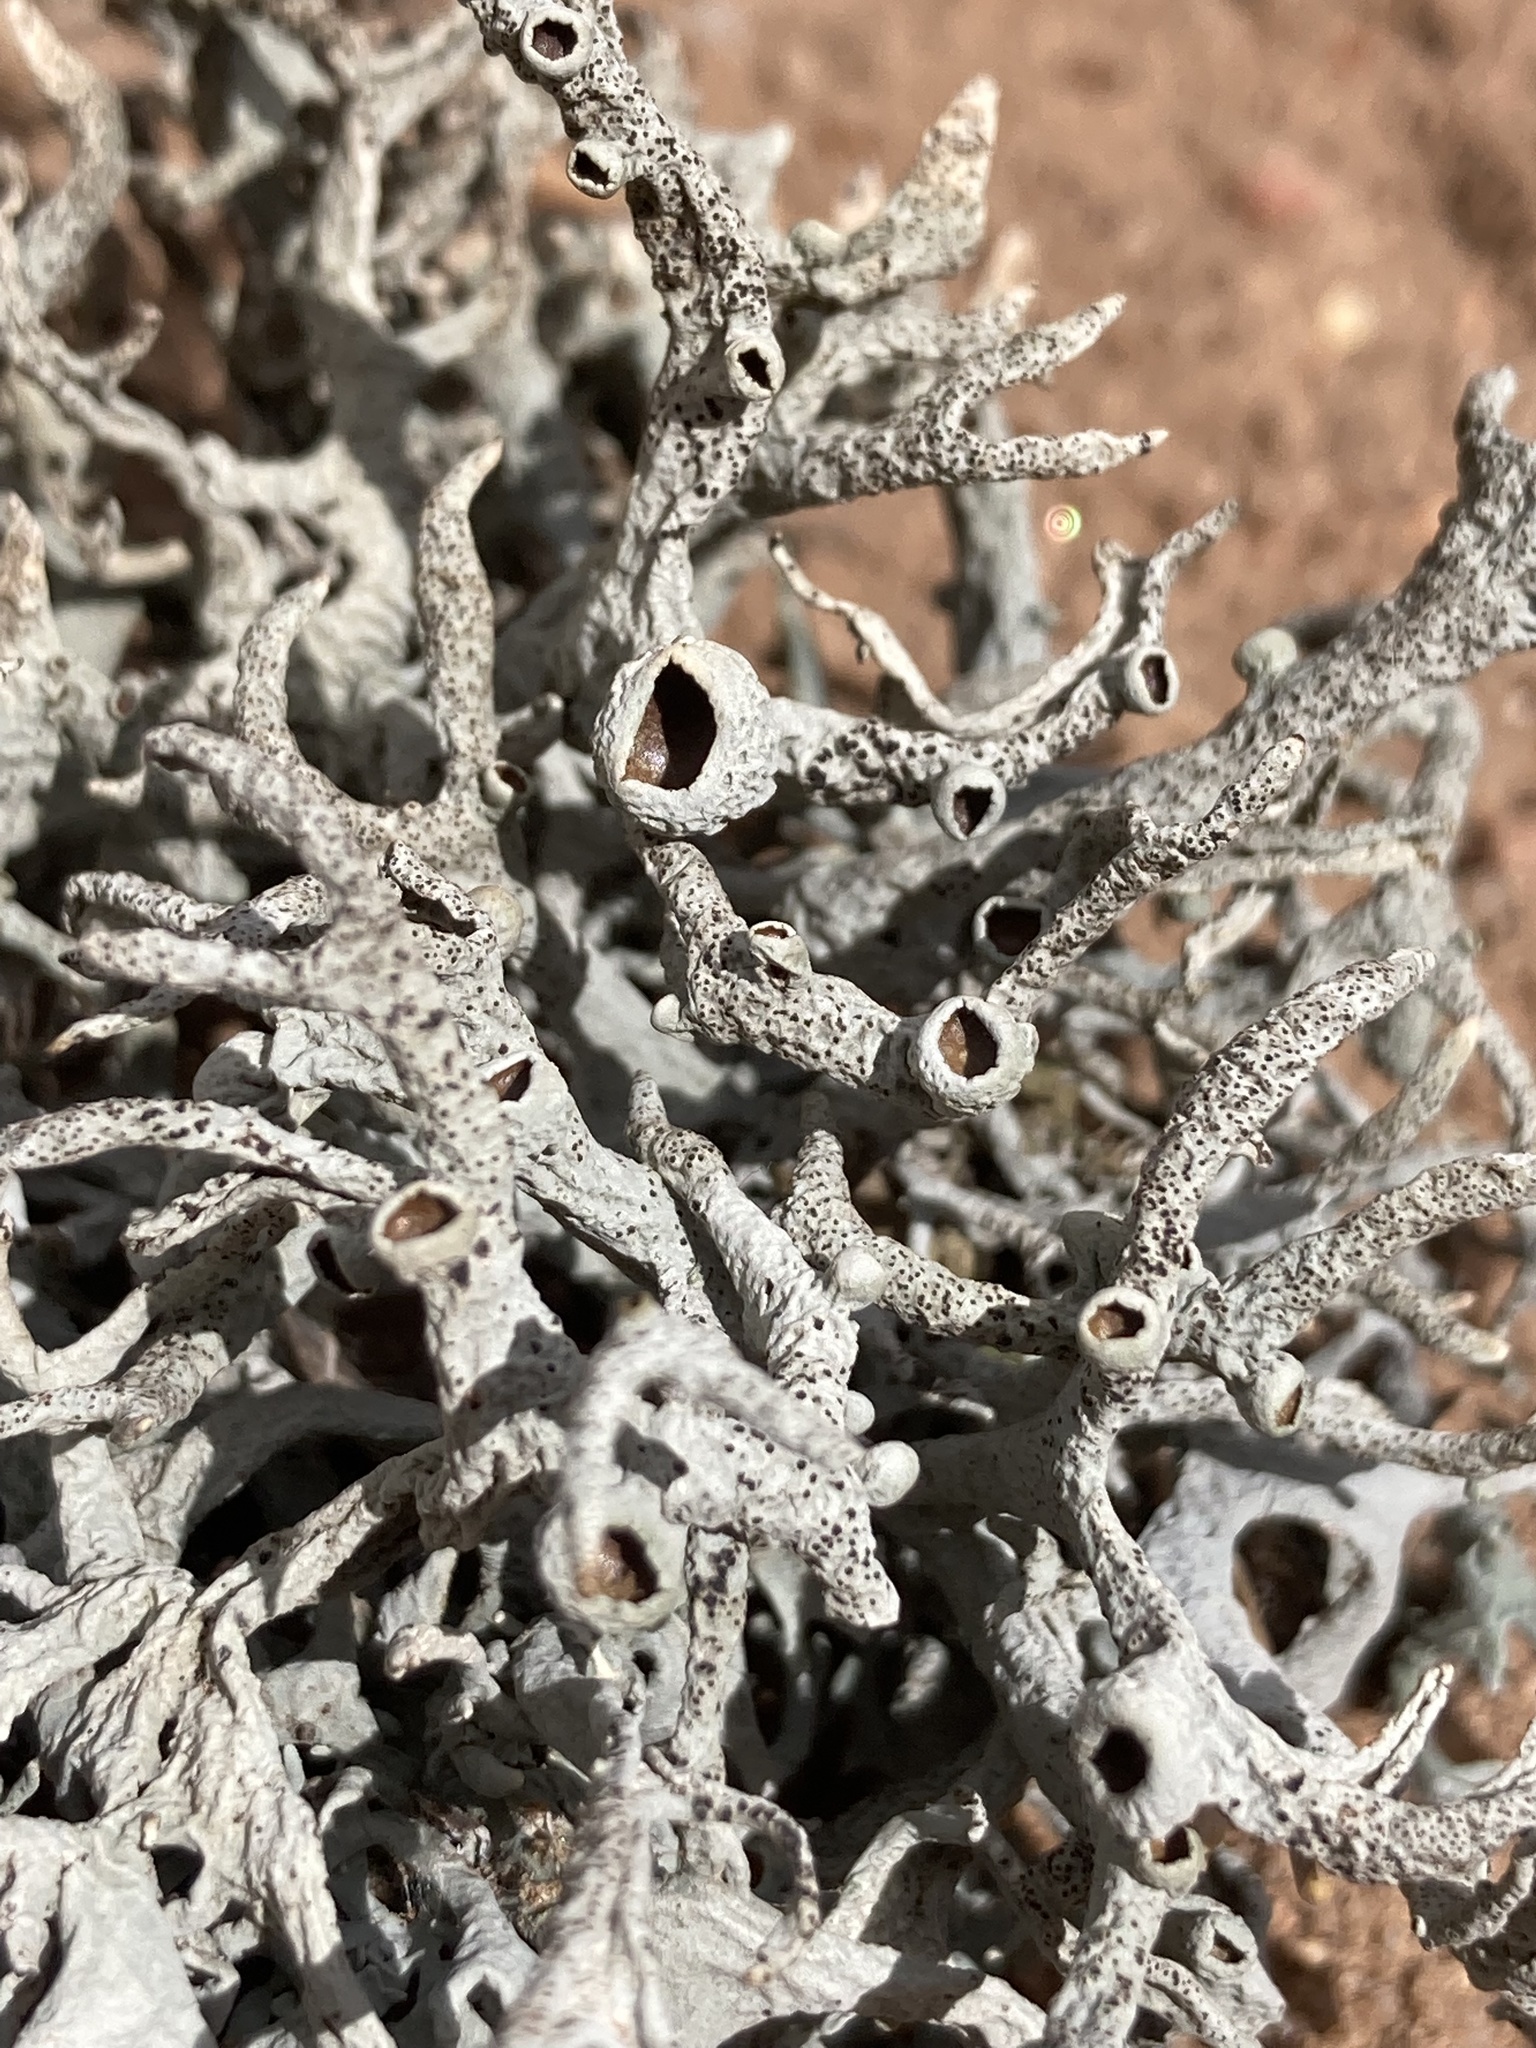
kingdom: Fungi
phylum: Ascomycota
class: Lecanoromycetes
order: Lecanorales
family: Parmeliaceae
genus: Pseudevernia
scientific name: Pseudevernia intensa
